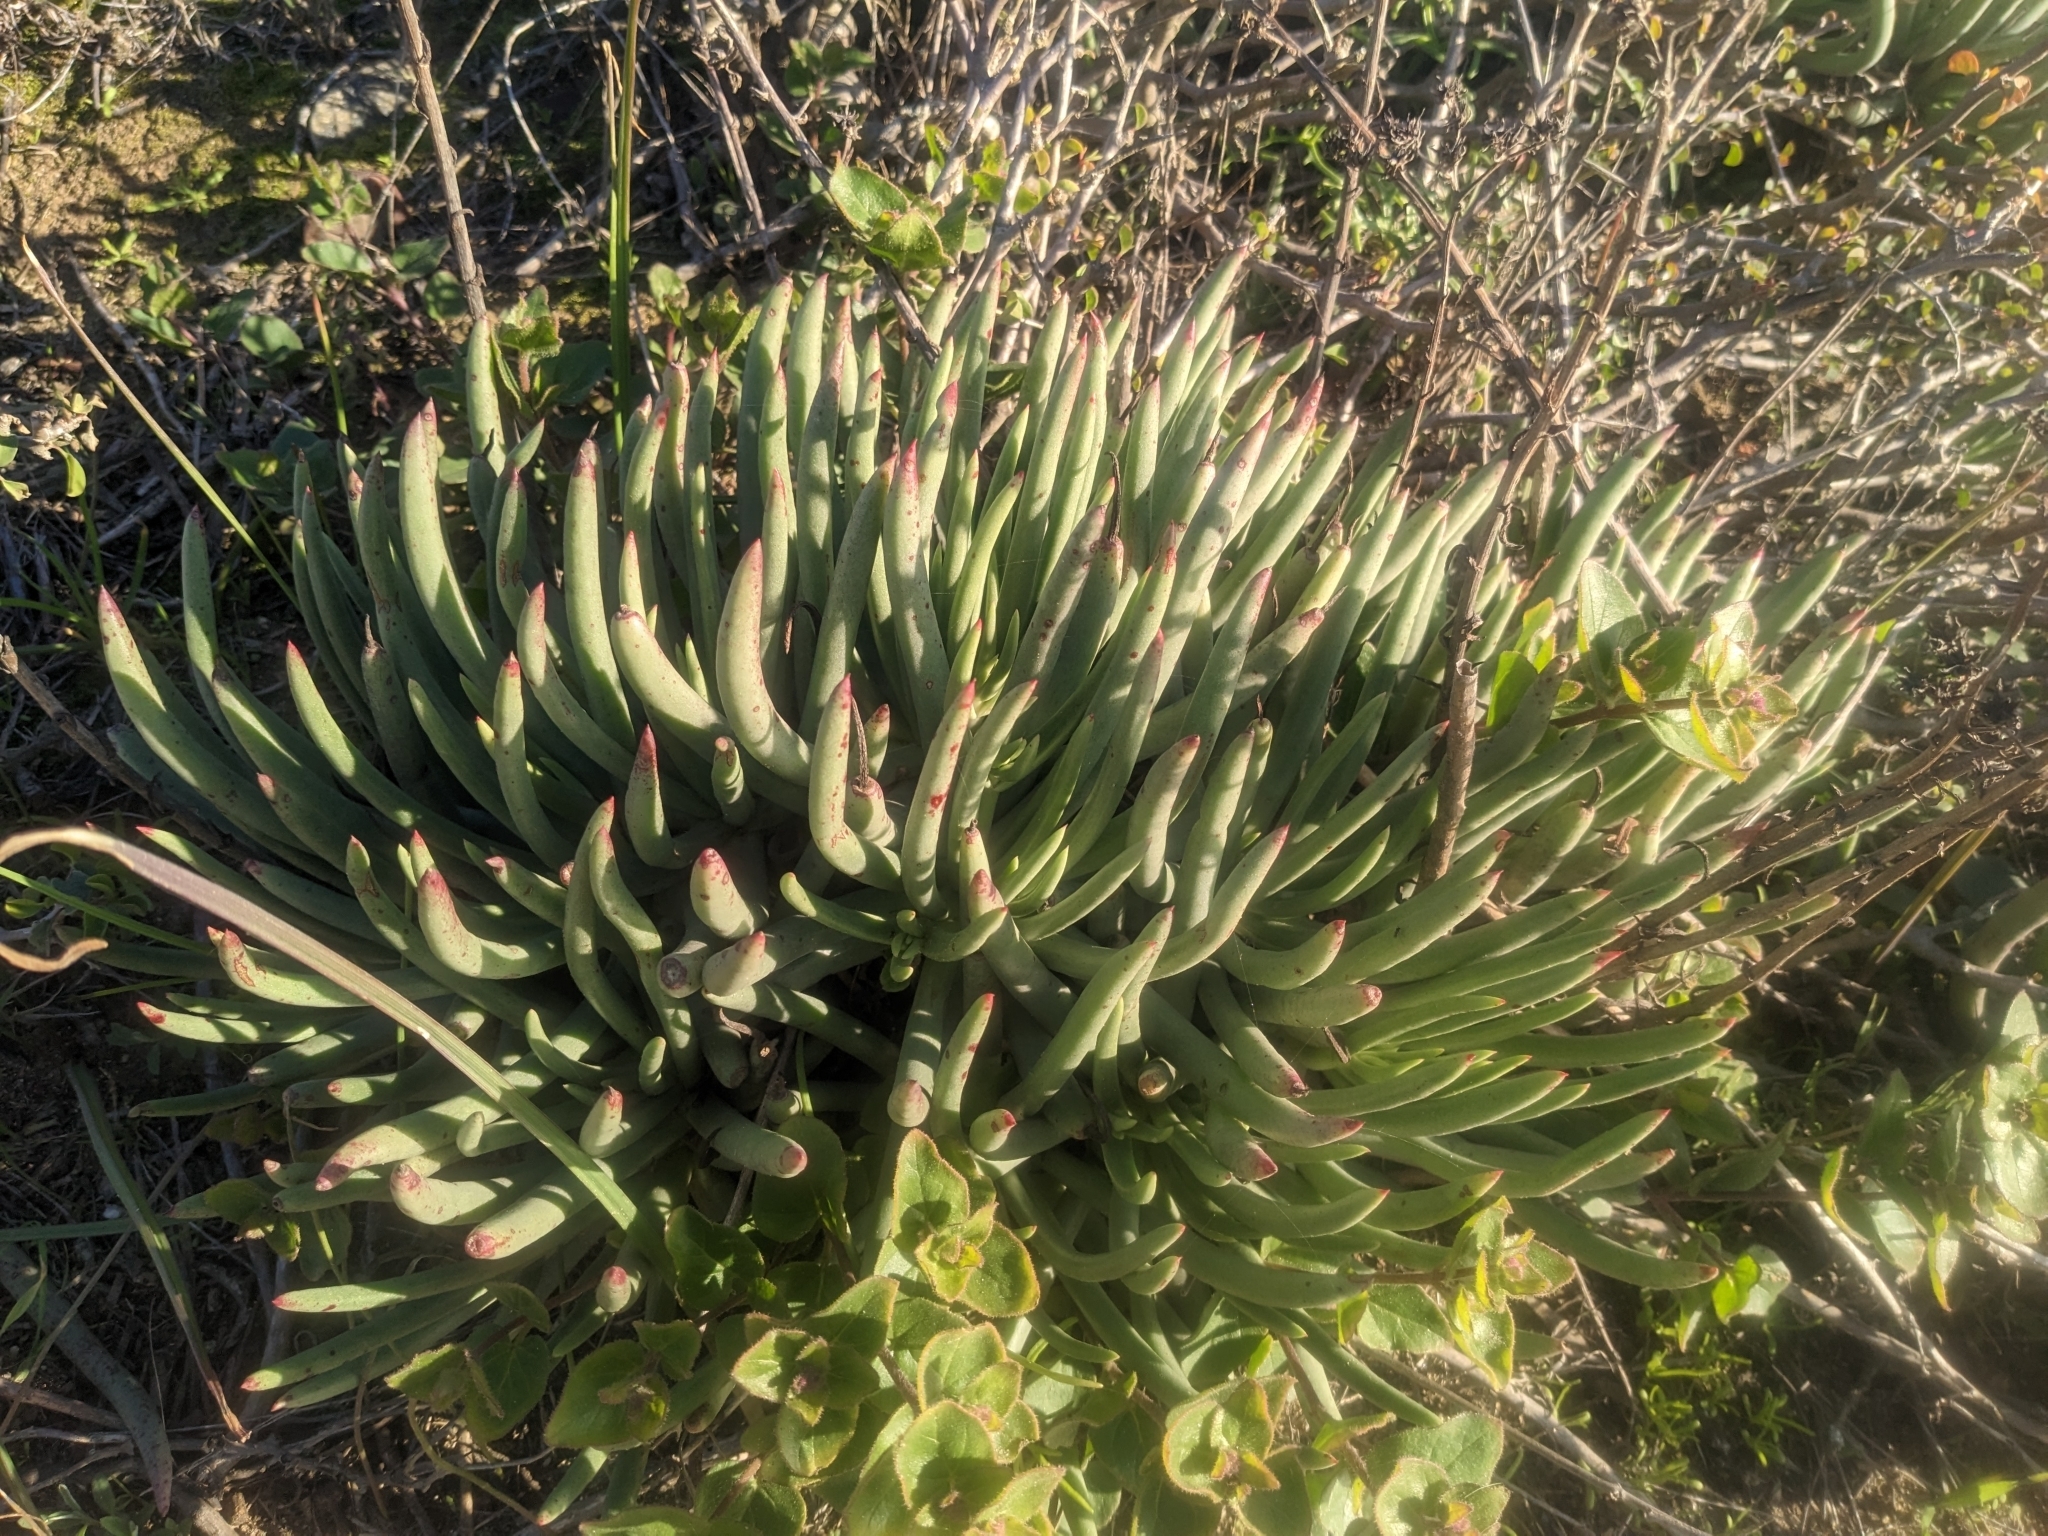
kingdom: Plantae
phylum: Tracheophyta
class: Magnoliopsida
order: Saxifragales
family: Crassulaceae
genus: Dudleya
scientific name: Dudleya edulis
